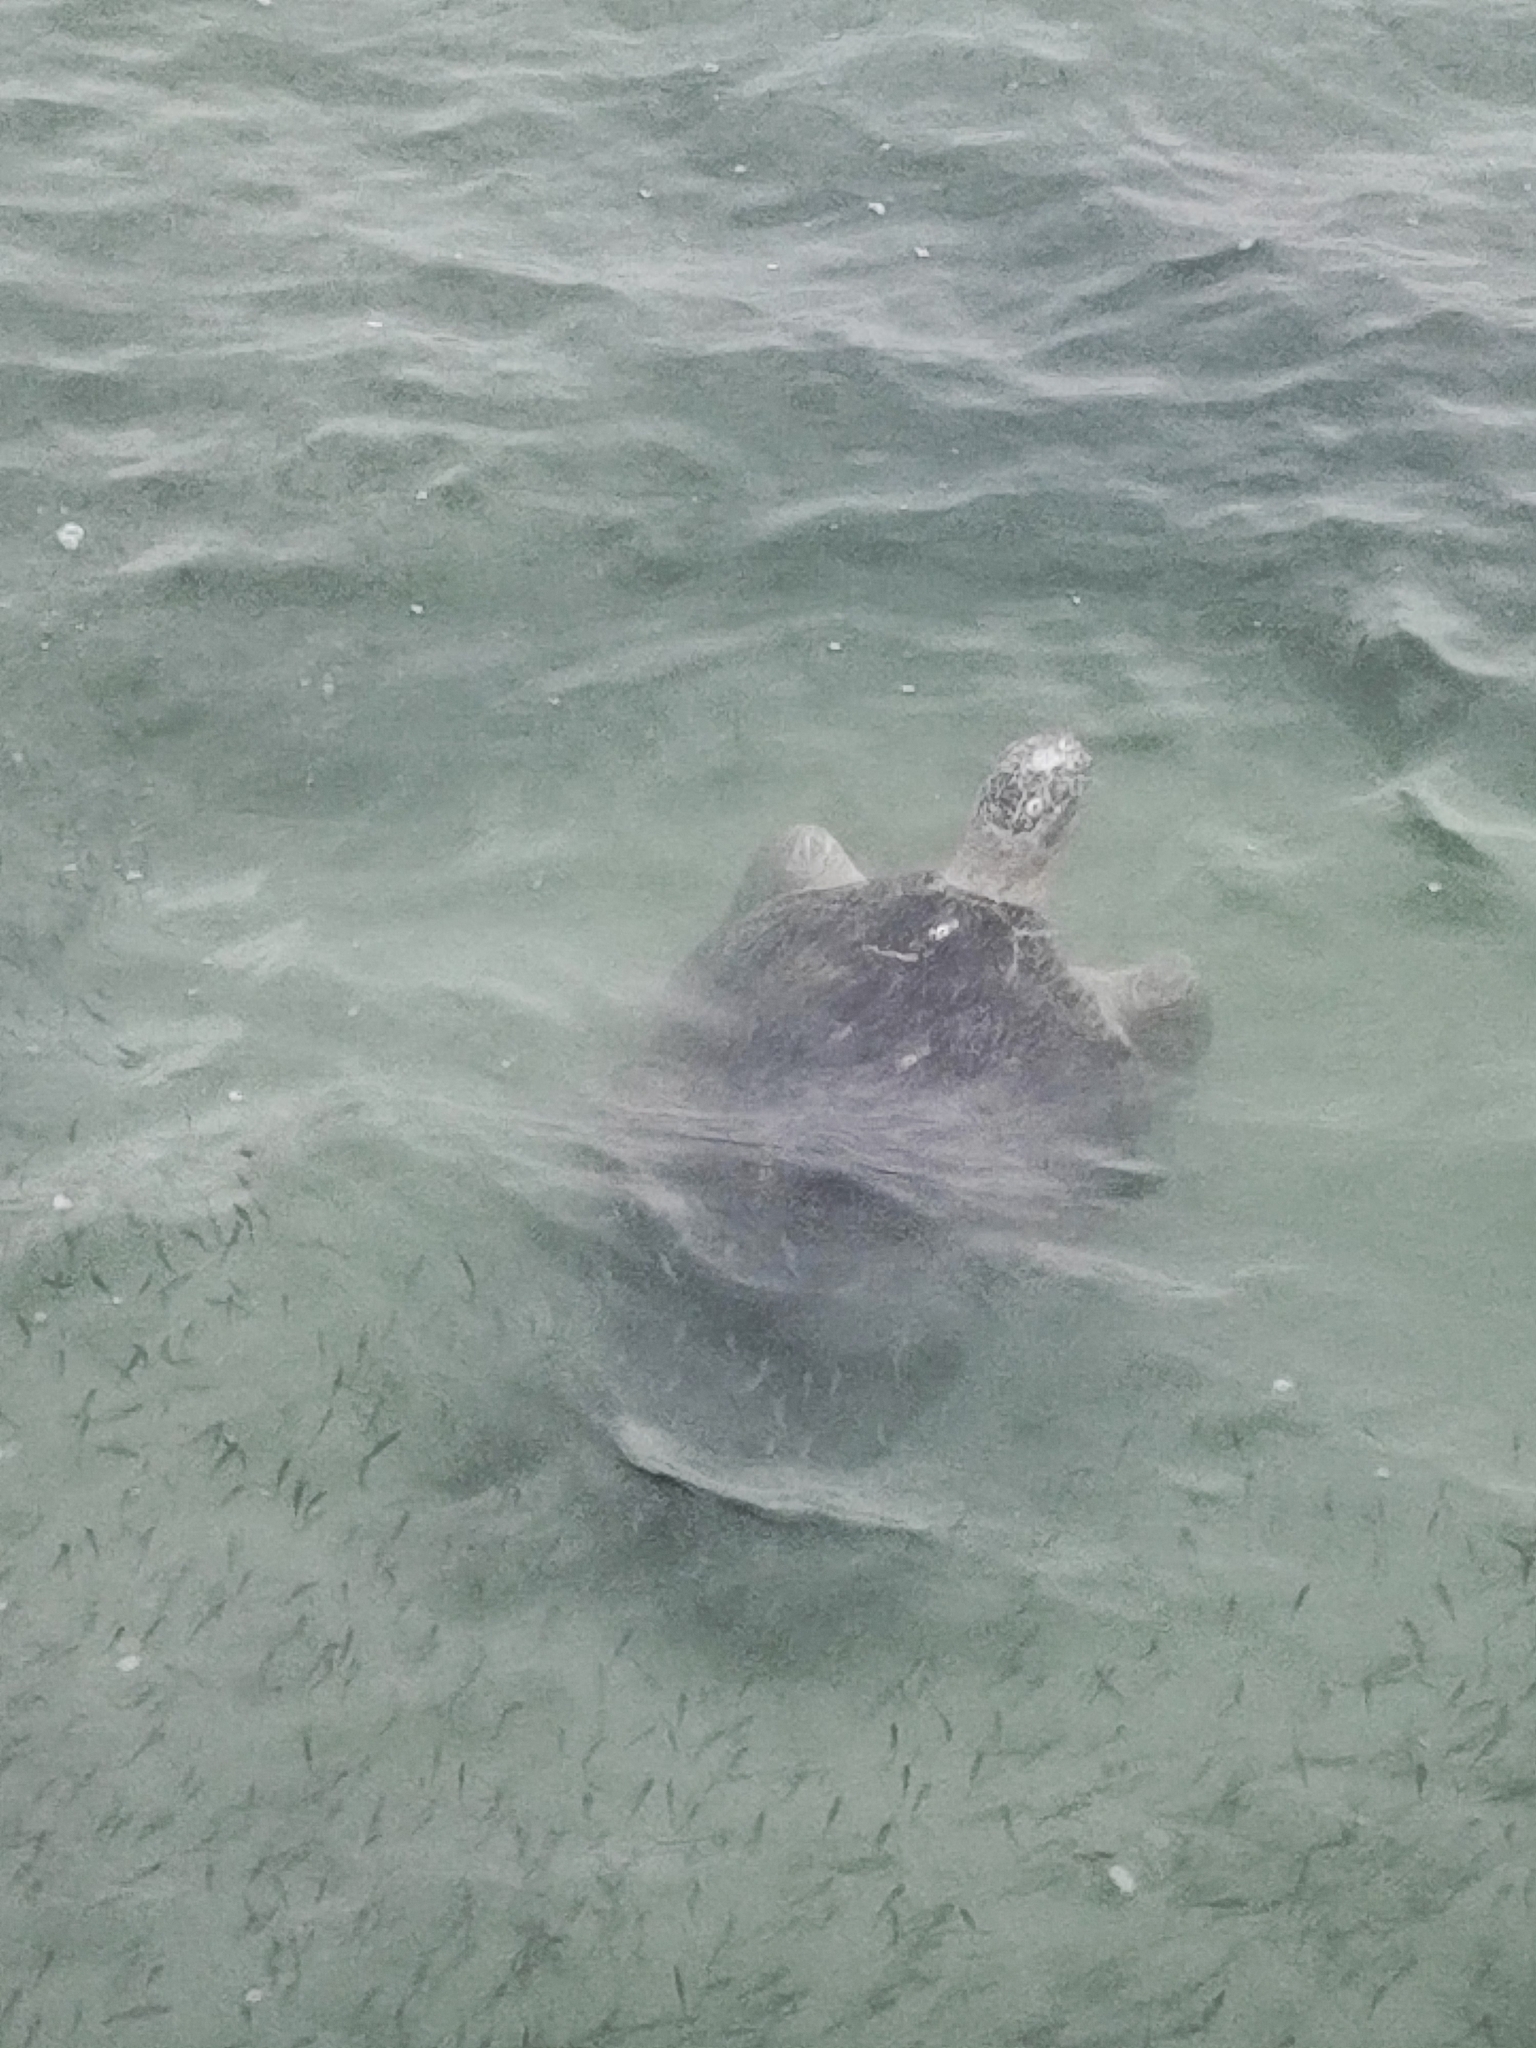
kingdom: Animalia
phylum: Chordata
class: Testudines
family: Cheloniidae
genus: Chelonia
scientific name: Chelonia mydas
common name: Green turtle
